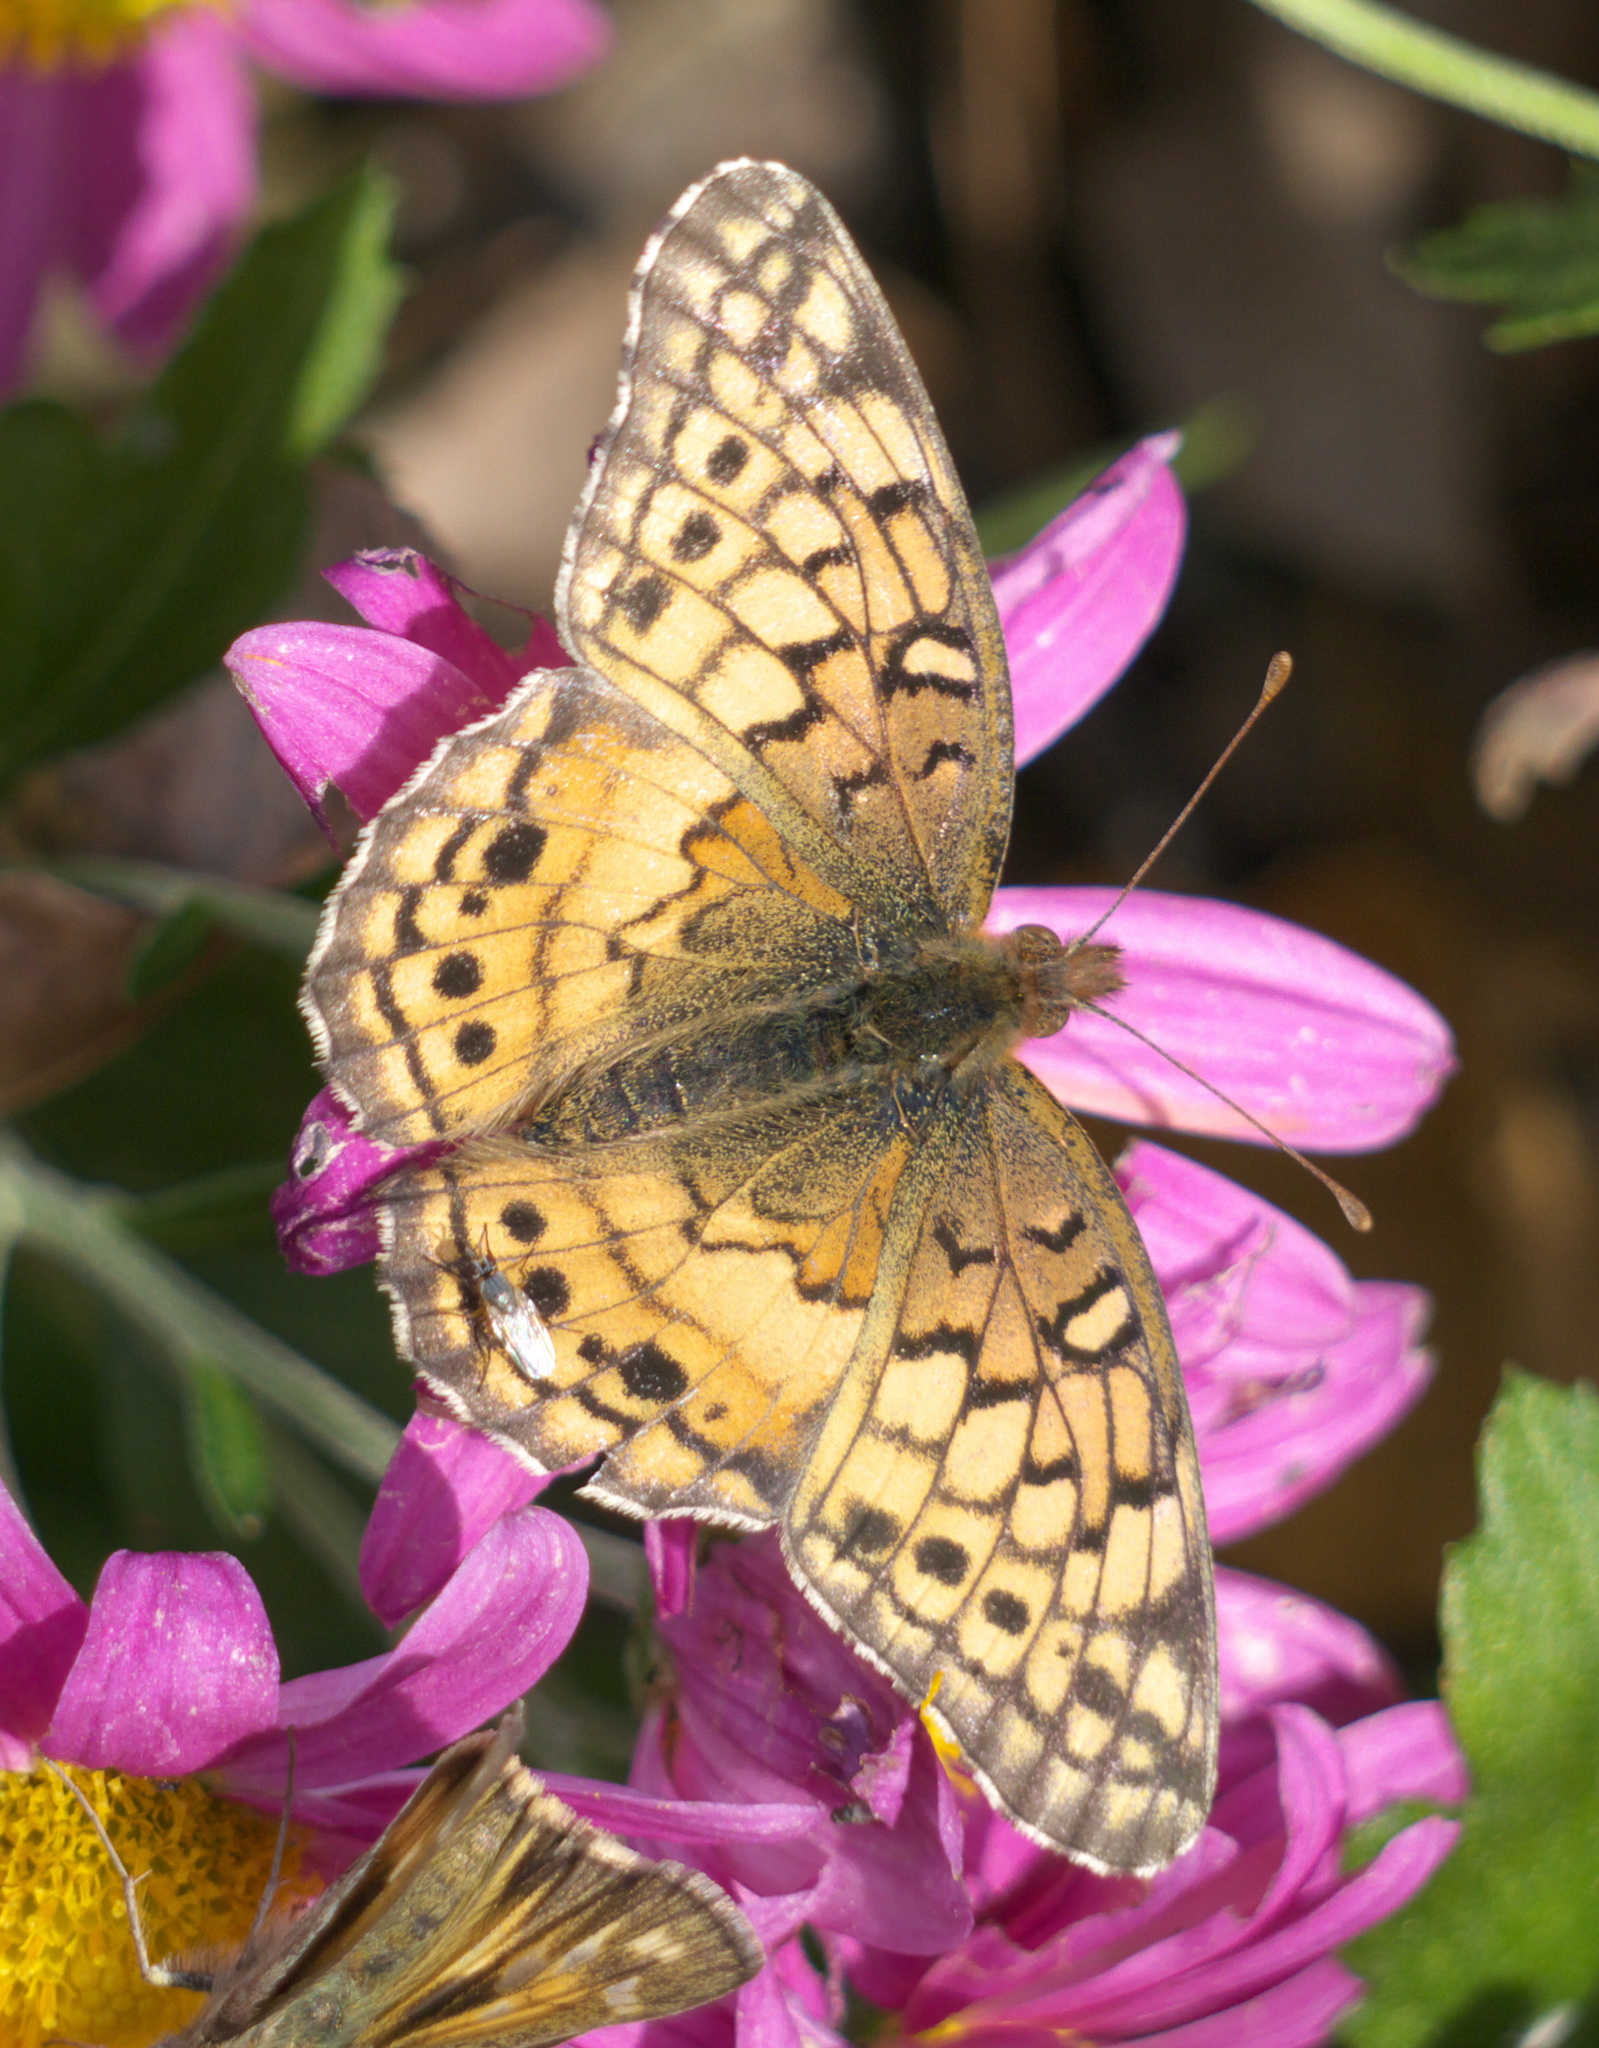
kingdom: Animalia
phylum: Arthropoda
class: Insecta
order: Lepidoptera
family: Nymphalidae
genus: Euptoieta
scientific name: Euptoieta claudia
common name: Variegated fritillary
